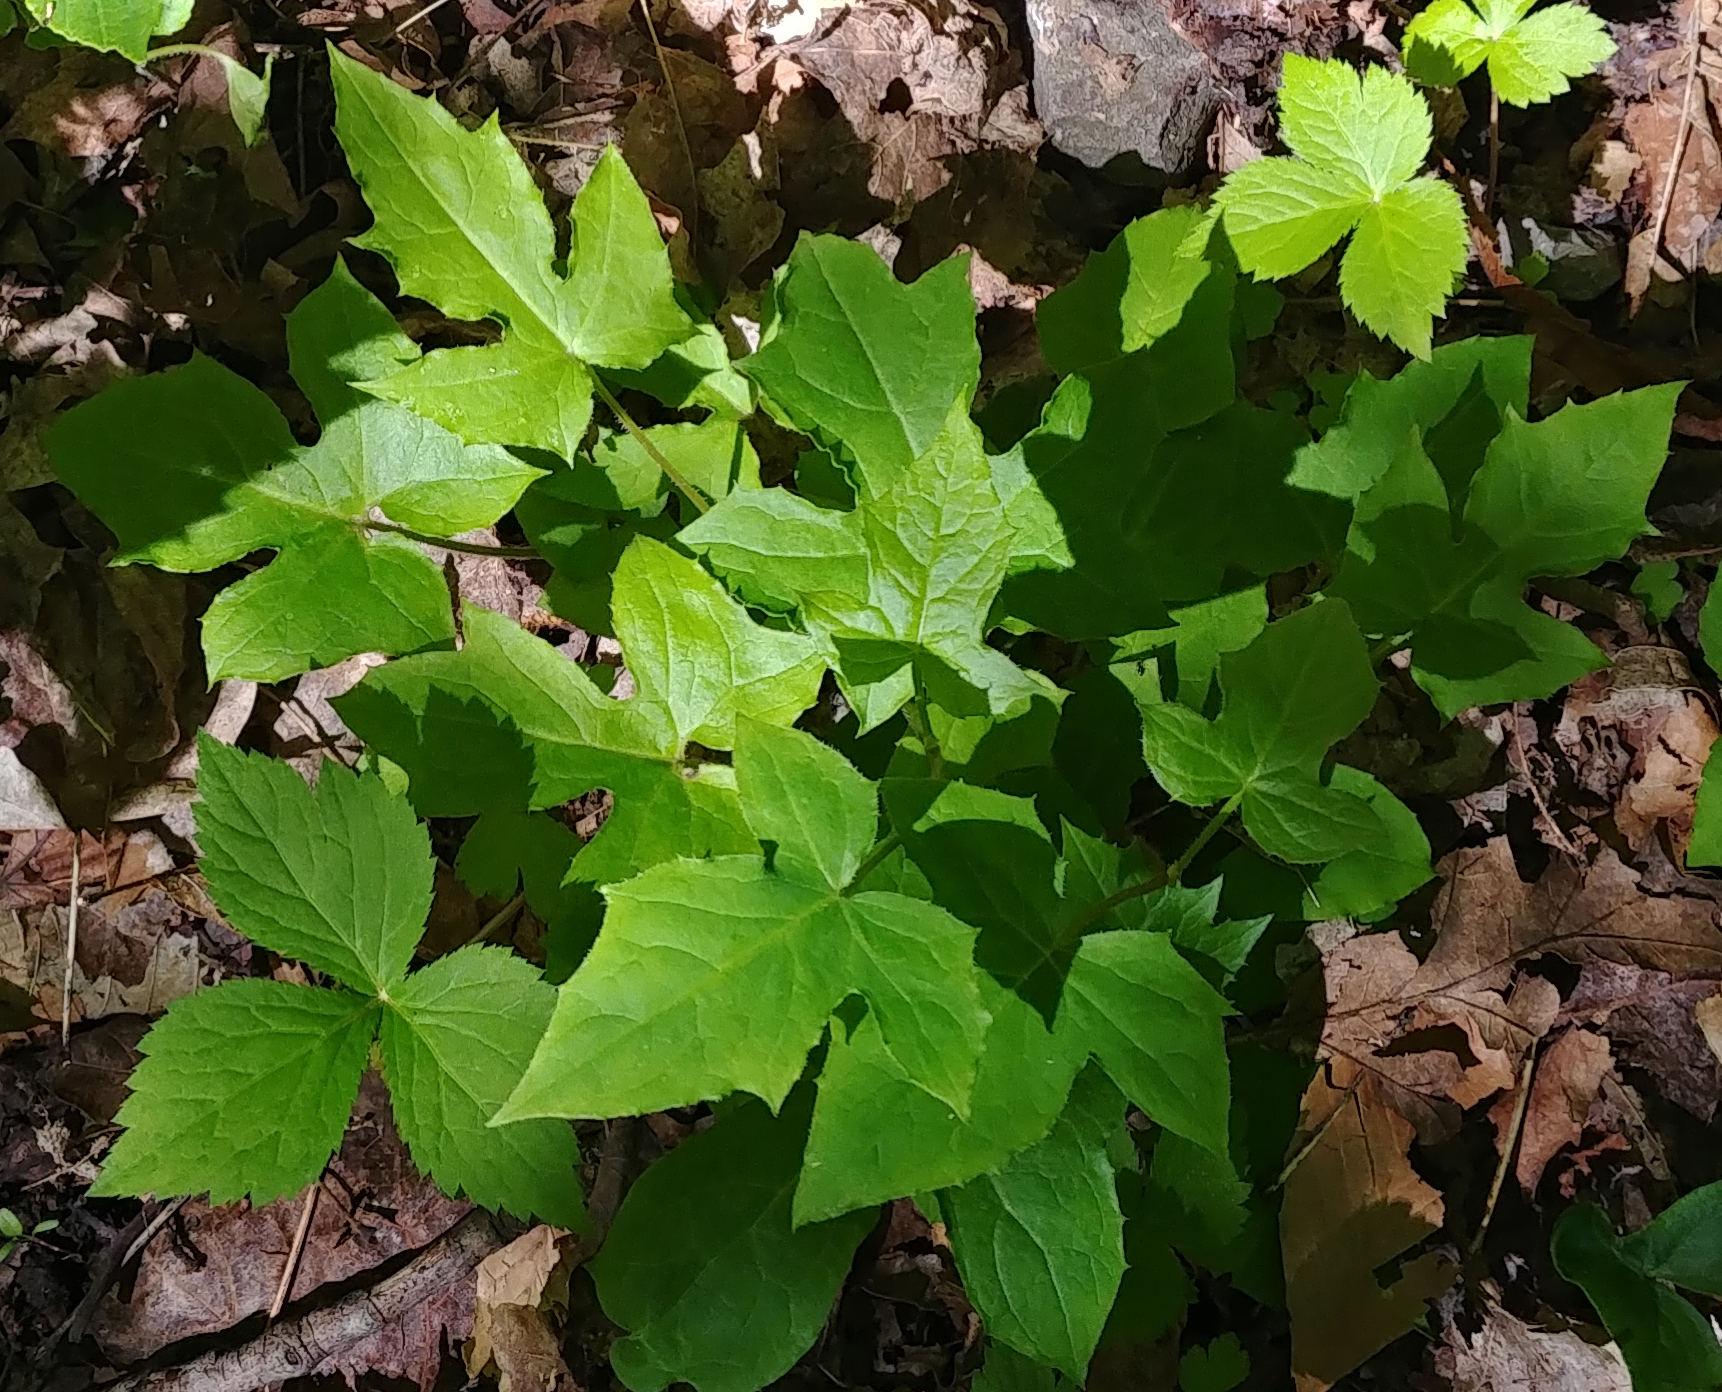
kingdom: Plantae
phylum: Tracheophyta
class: Magnoliopsida
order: Asterales
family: Asteraceae
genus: Nabalus
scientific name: Nabalus
